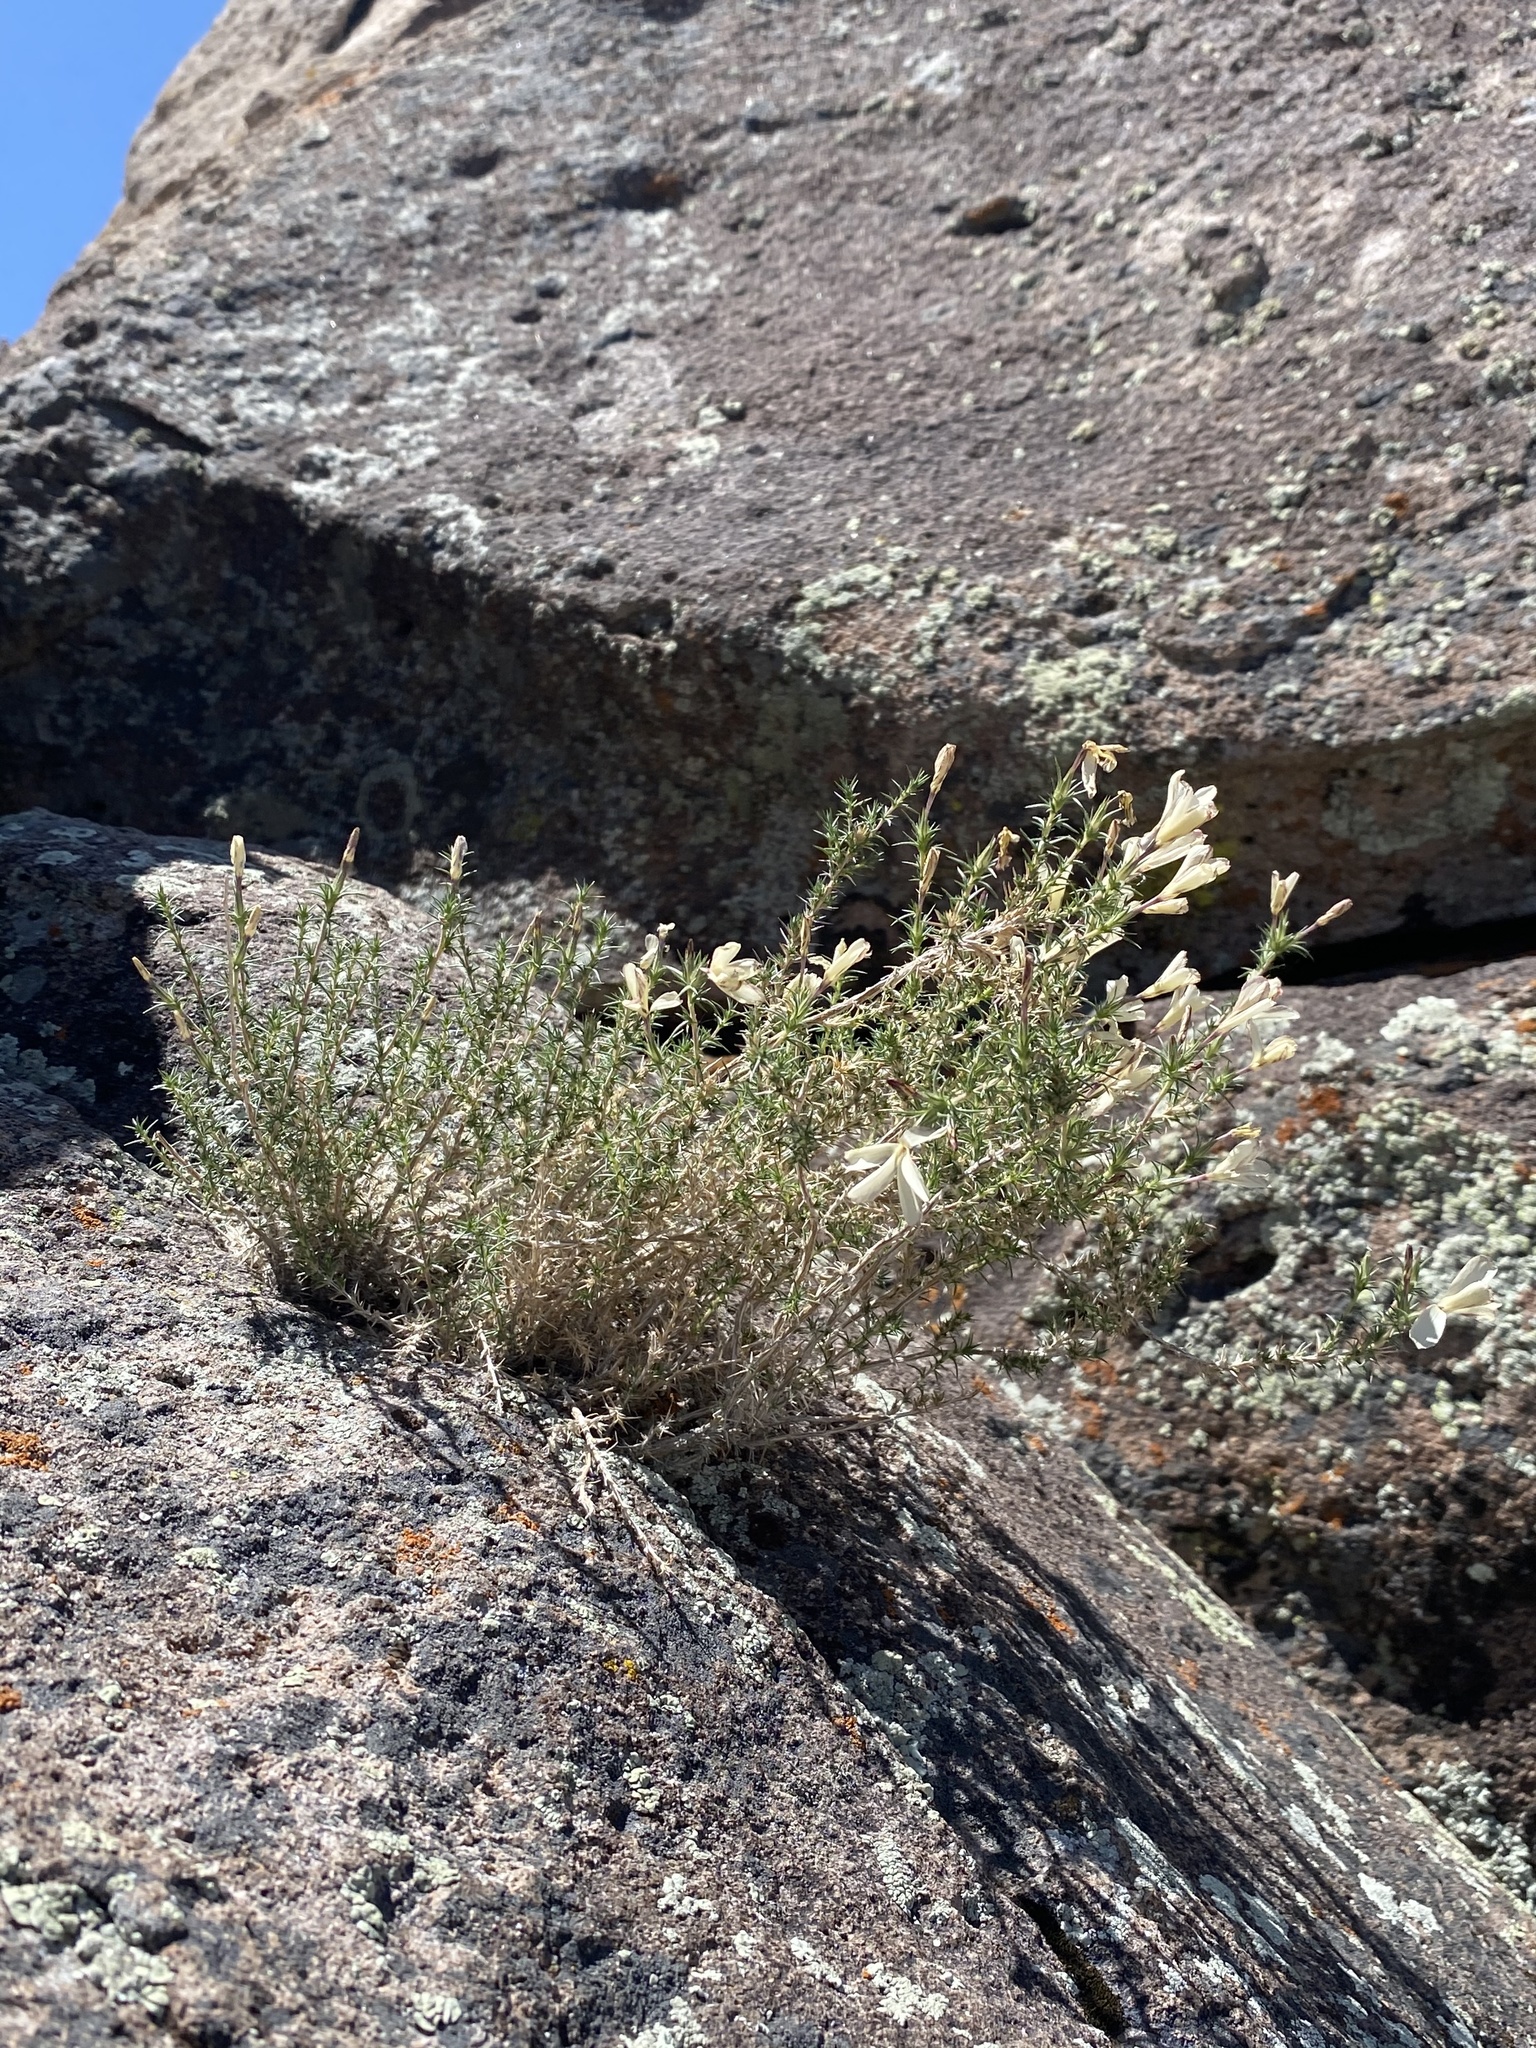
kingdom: Plantae
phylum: Tracheophyta
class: Magnoliopsida
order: Ericales
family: Polemoniaceae
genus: Linanthus
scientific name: Linanthus pungens
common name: Granite prickly phlox
